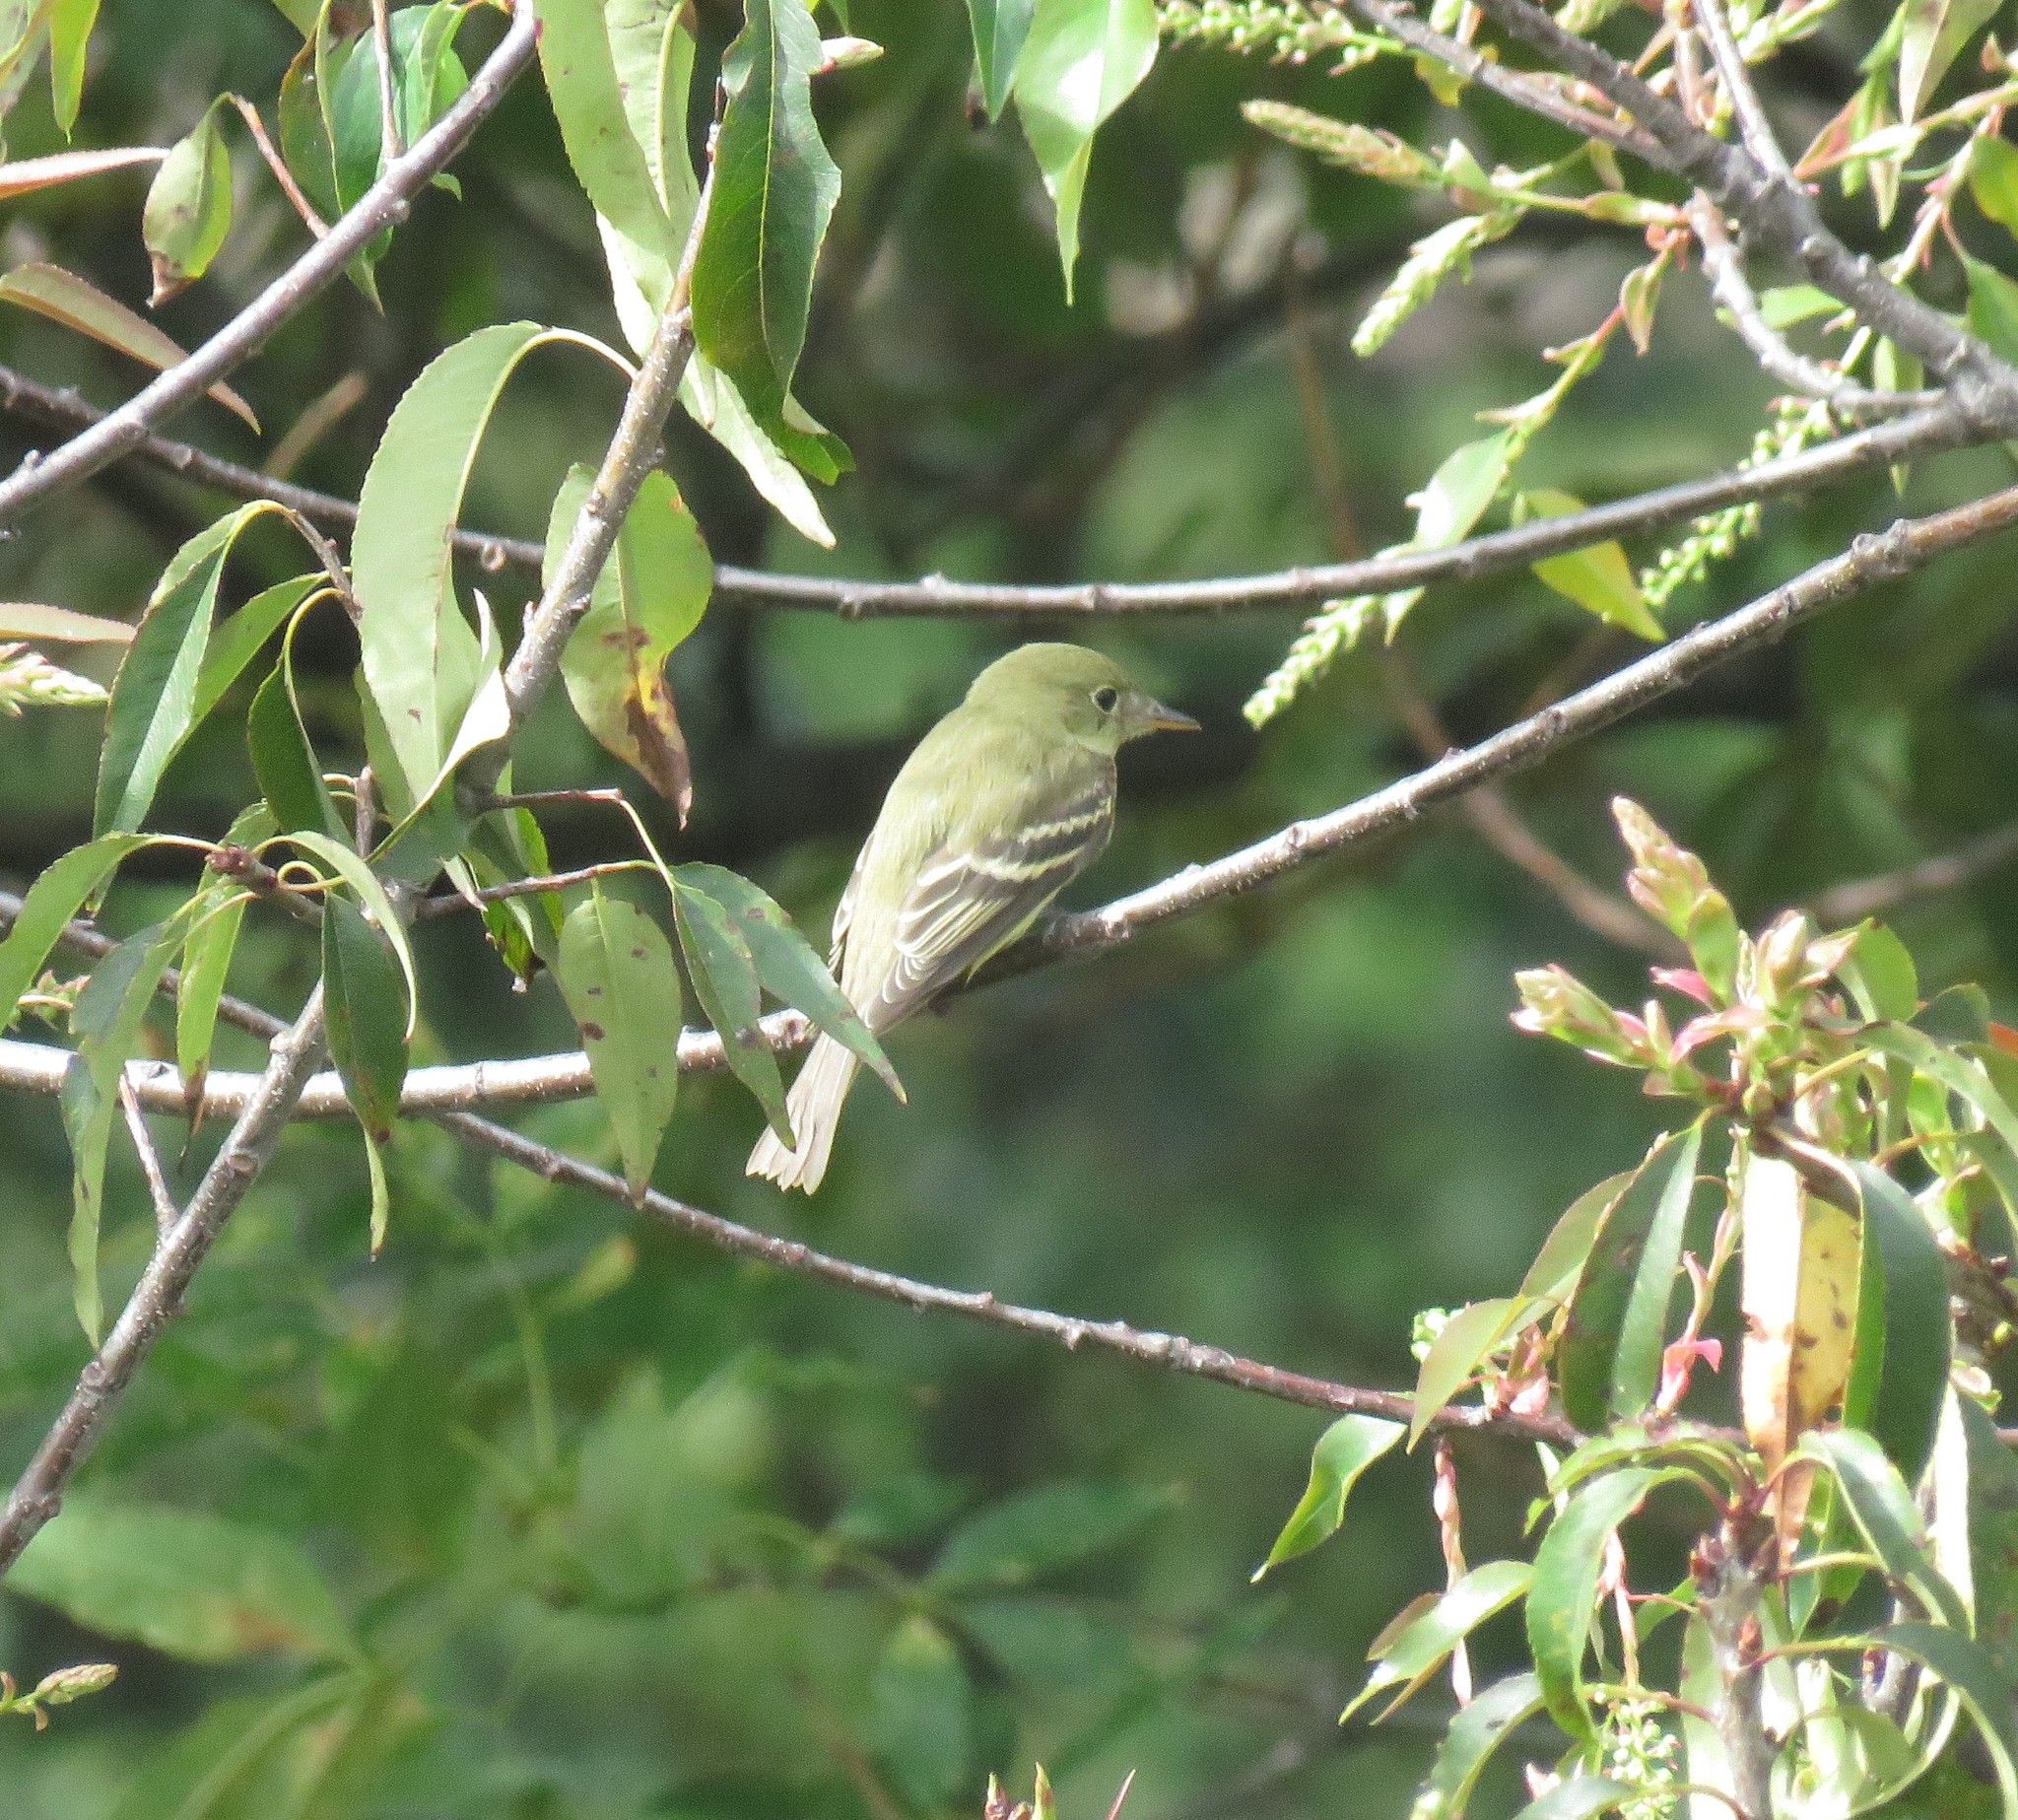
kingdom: Animalia
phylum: Chordata
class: Aves
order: Passeriformes
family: Tyrannidae
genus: Empidonax
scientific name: Empidonax virescens
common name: Acadian flycatcher
